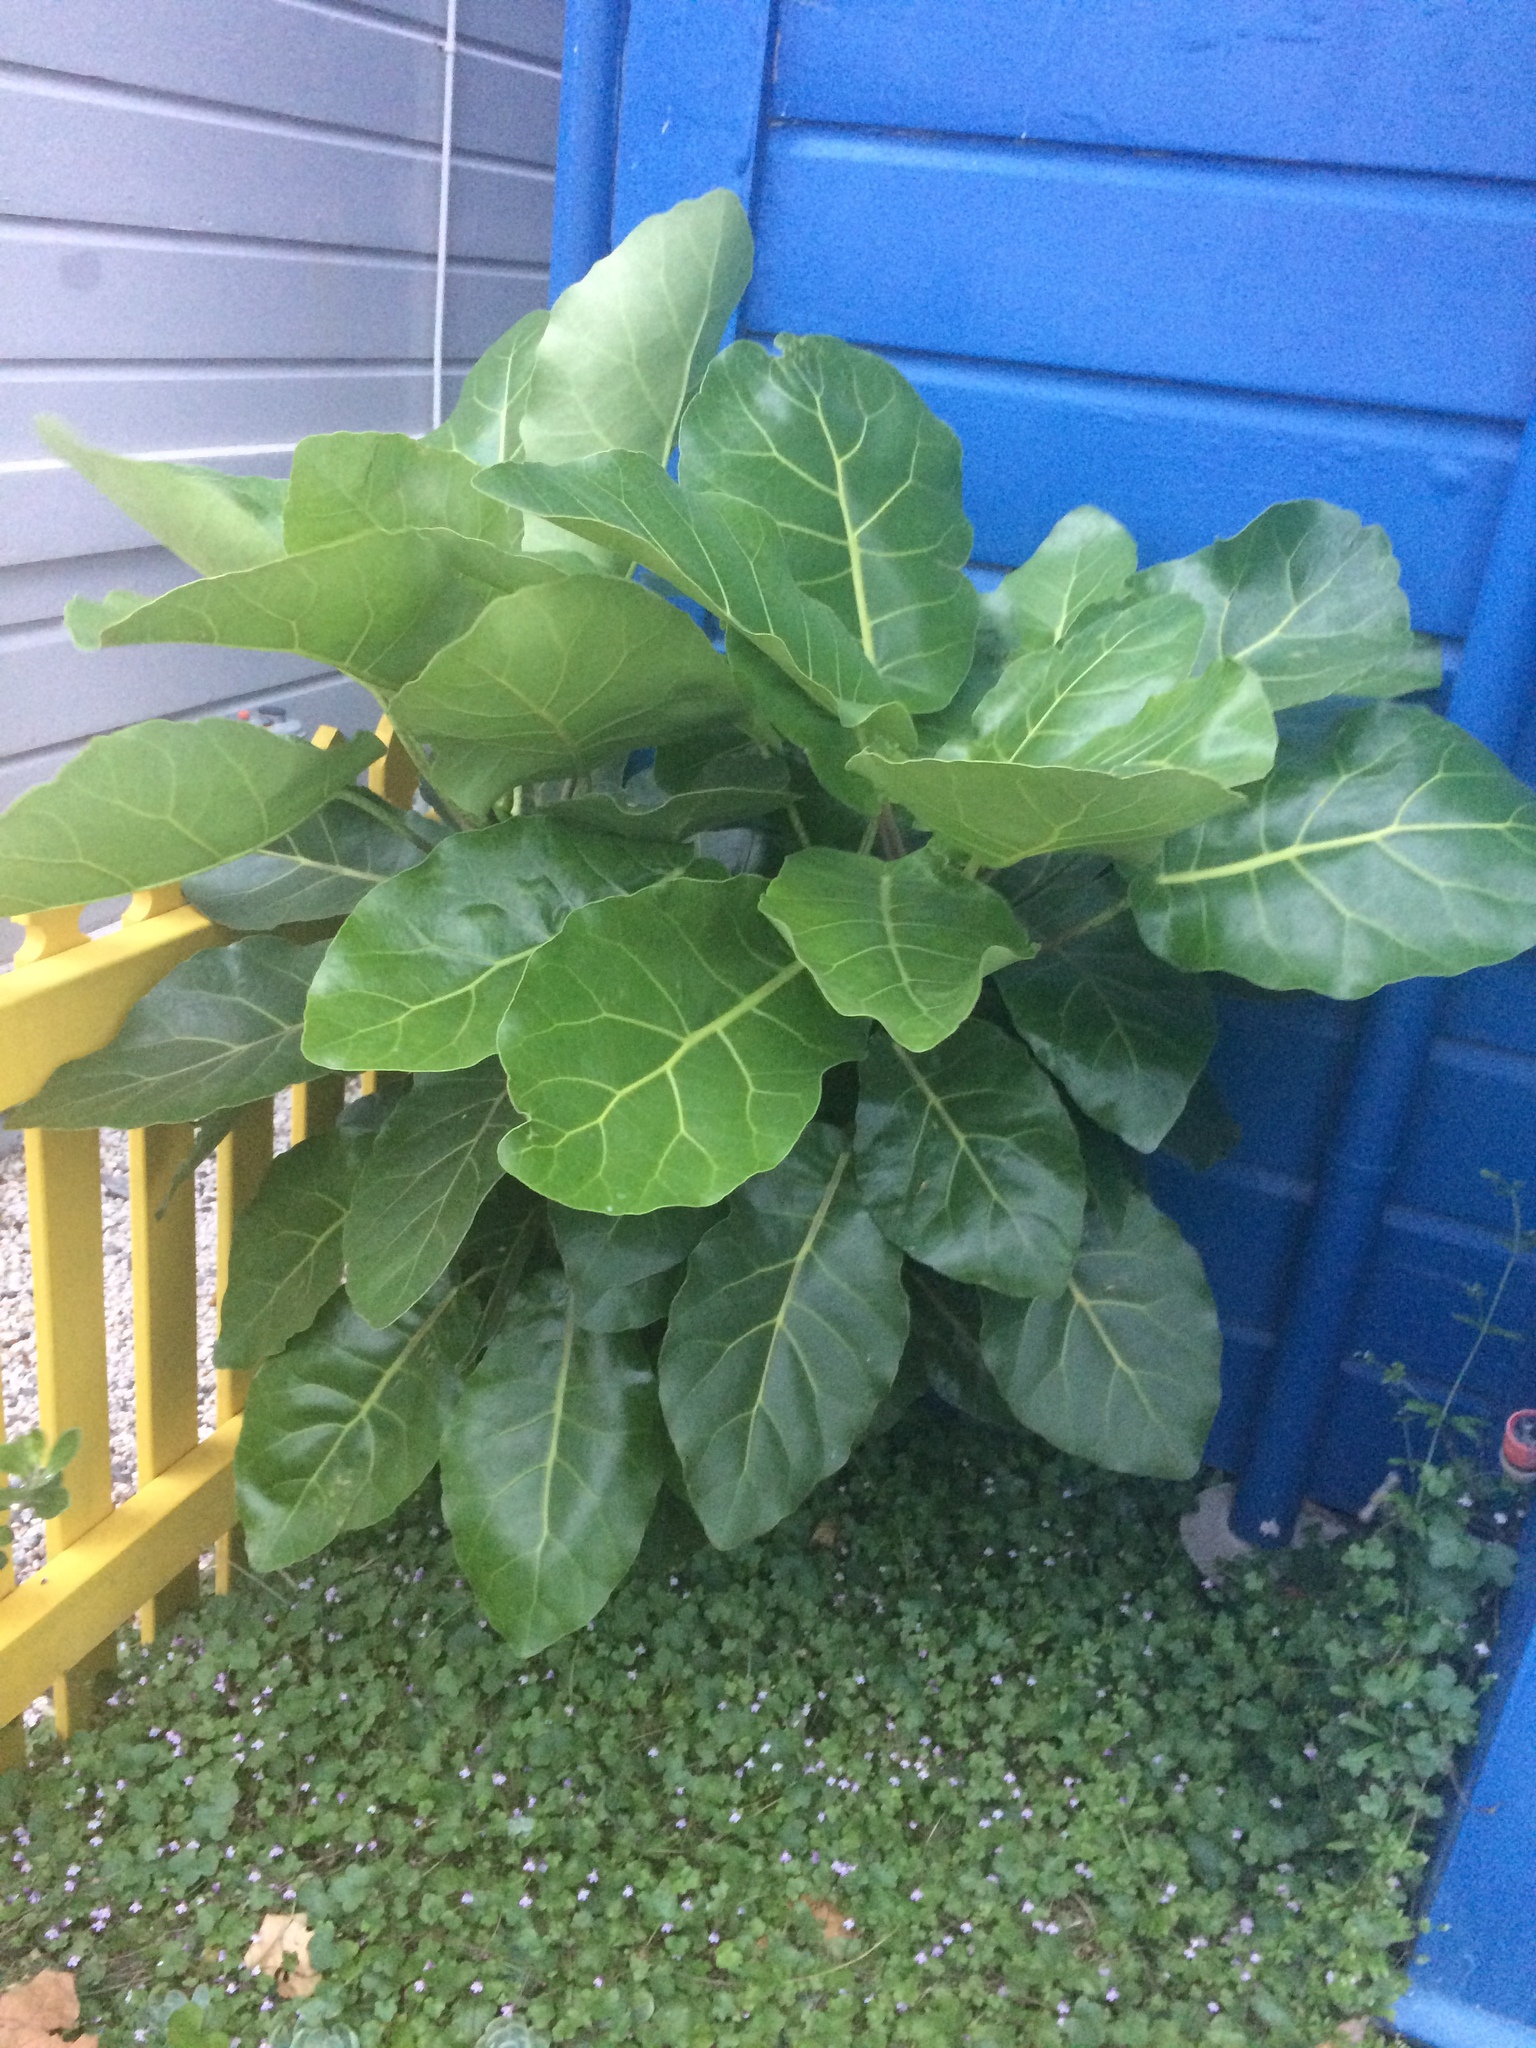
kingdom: Plantae
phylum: Tracheophyta
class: Magnoliopsida
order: Apiales
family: Araliaceae
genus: Meryta
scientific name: Meryta sinclairii
